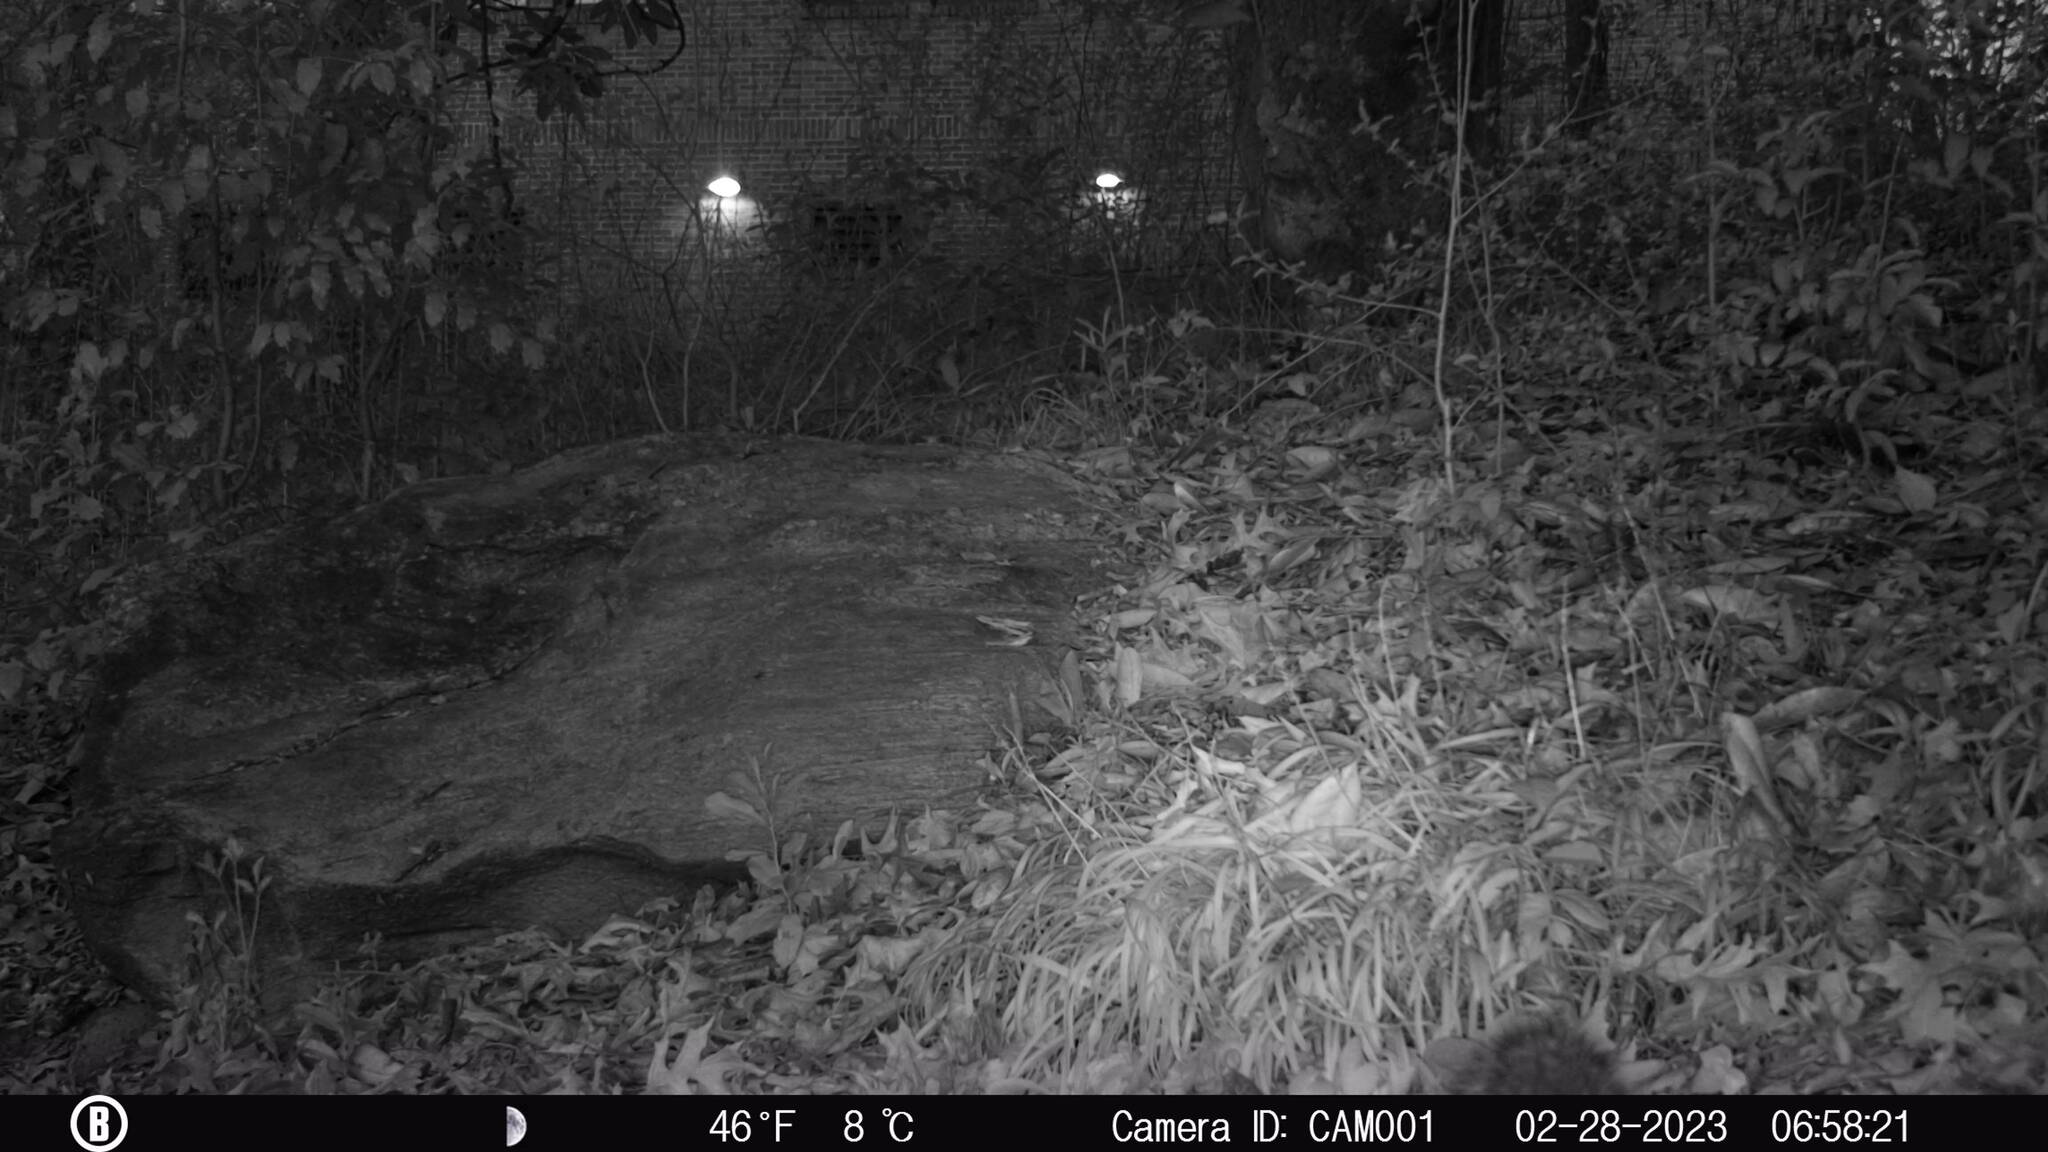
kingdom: Animalia
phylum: Chordata
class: Mammalia
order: Rodentia
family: Sciuridae
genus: Sciurus
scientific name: Sciurus carolinensis
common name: Eastern gray squirrel
